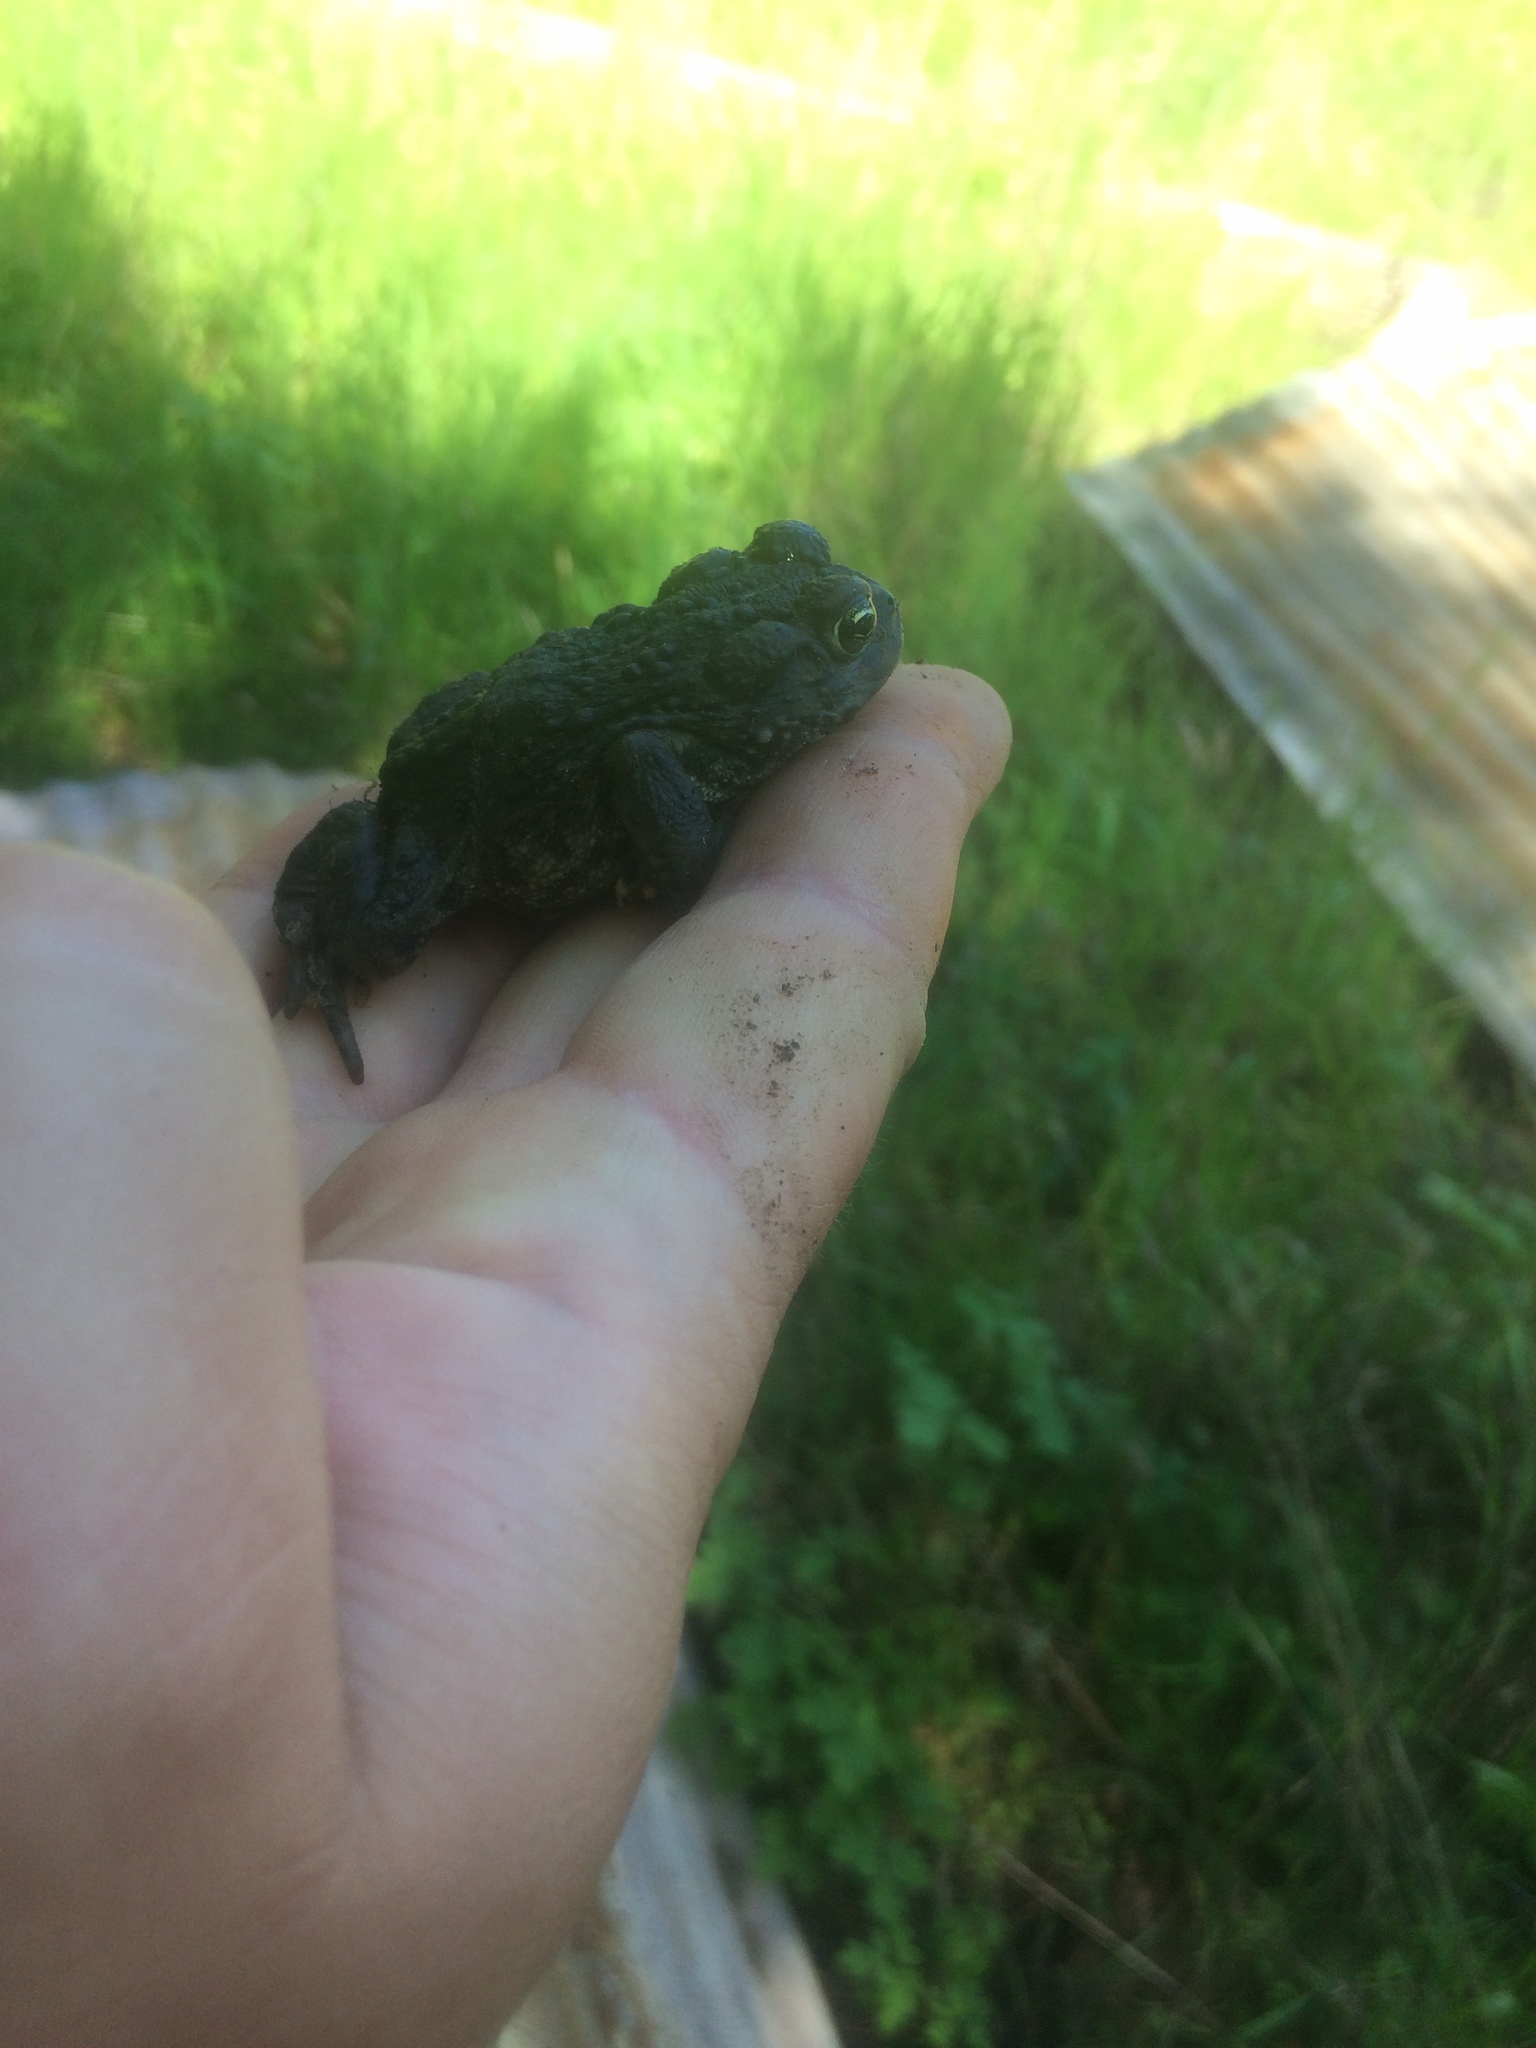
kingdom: Animalia
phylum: Chordata
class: Amphibia
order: Anura
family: Bufonidae
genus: Anaxyrus
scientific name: Anaxyrus boreas
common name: Western toad
